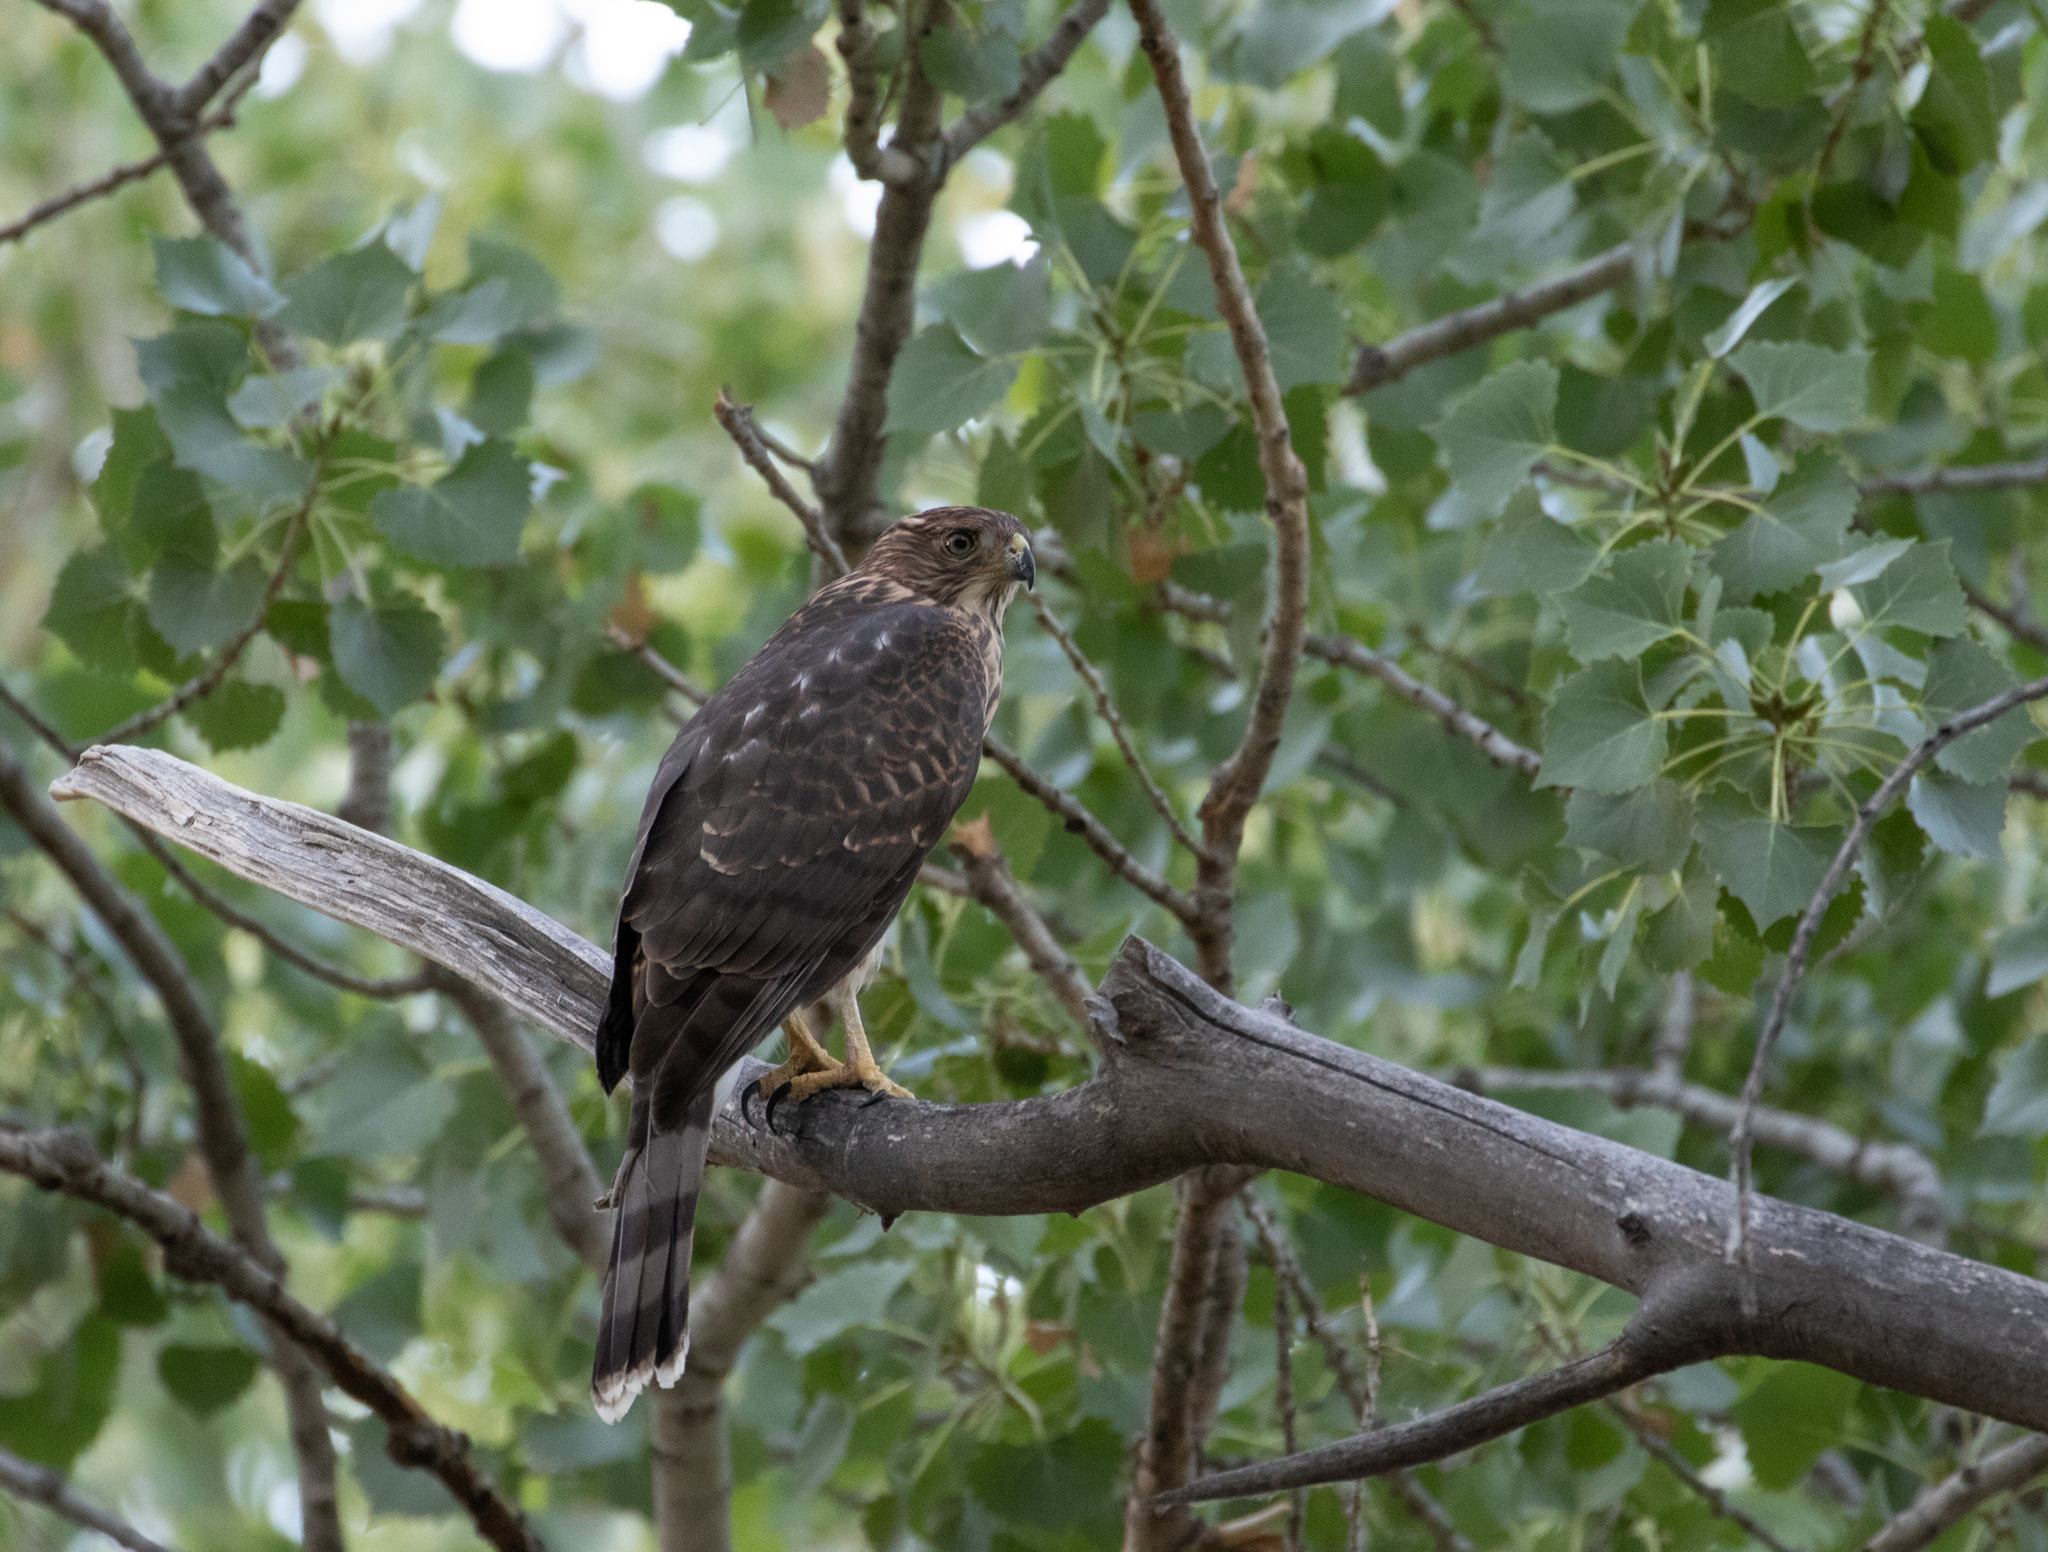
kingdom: Animalia
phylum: Chordata
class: Aves
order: Accipitriformes
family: Accipitridae
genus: Accipiter
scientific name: Accipiter cooperii
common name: Cooper's hawk
